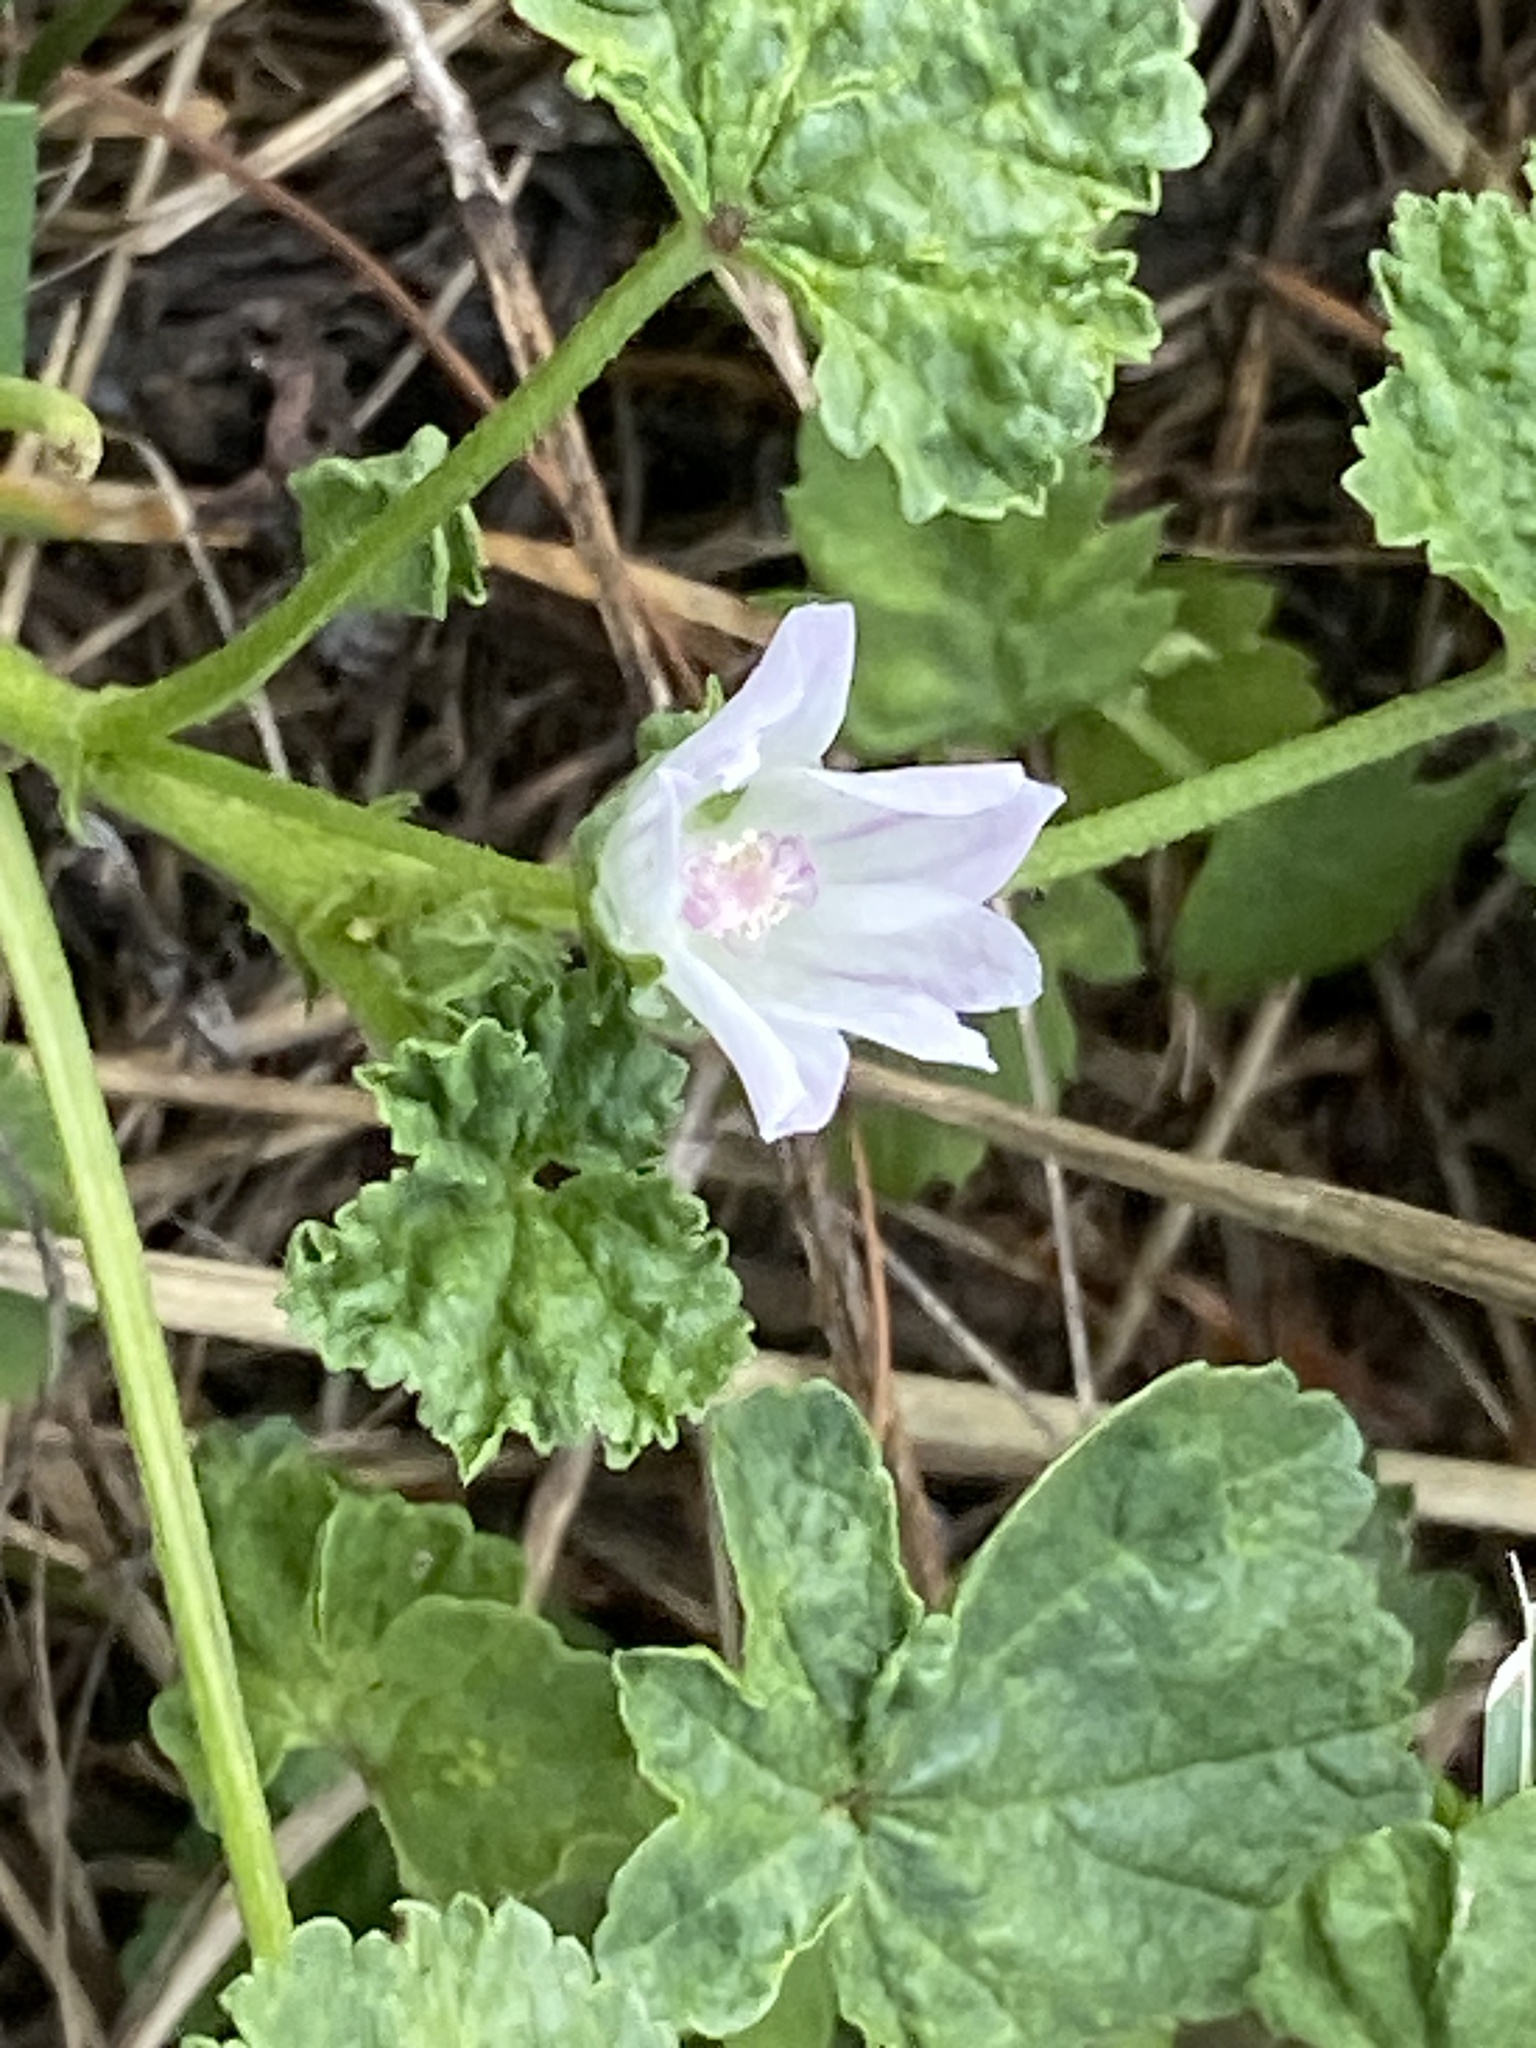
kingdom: Plantae
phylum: Tracheophyta
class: Magnoliopsida
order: Malvales
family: Malvaceae
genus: Malva
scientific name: Malva neglecta
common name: Common mallow
